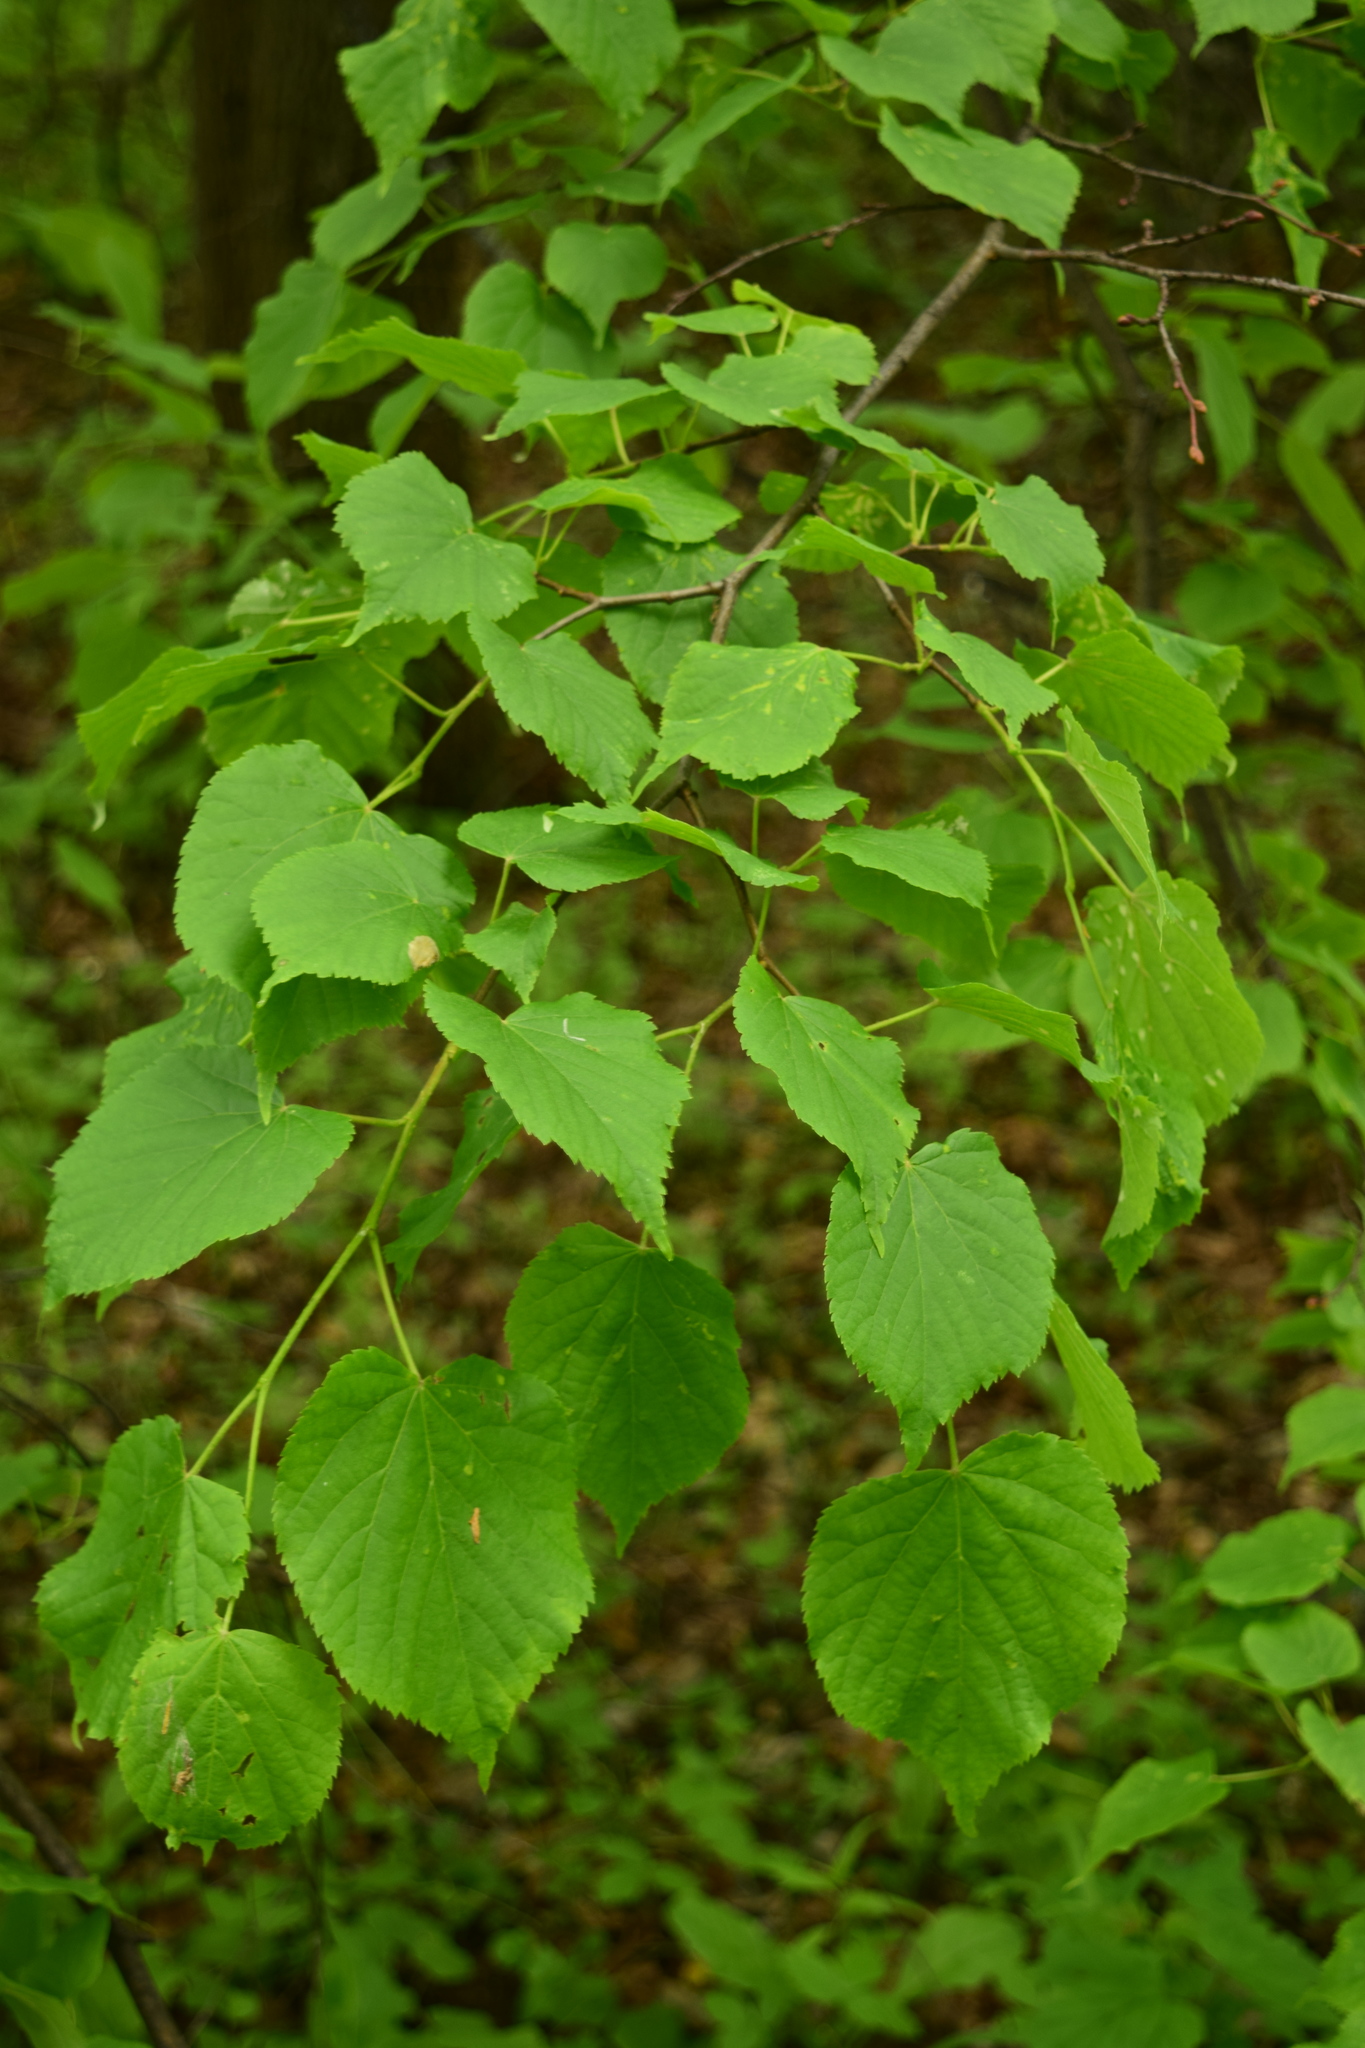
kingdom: Plantae
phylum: Tracheophyta
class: Magnoliopsida
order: Malvales
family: Malvaceae
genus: Tilia
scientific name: Tilia cordata
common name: Small-leaved lime
